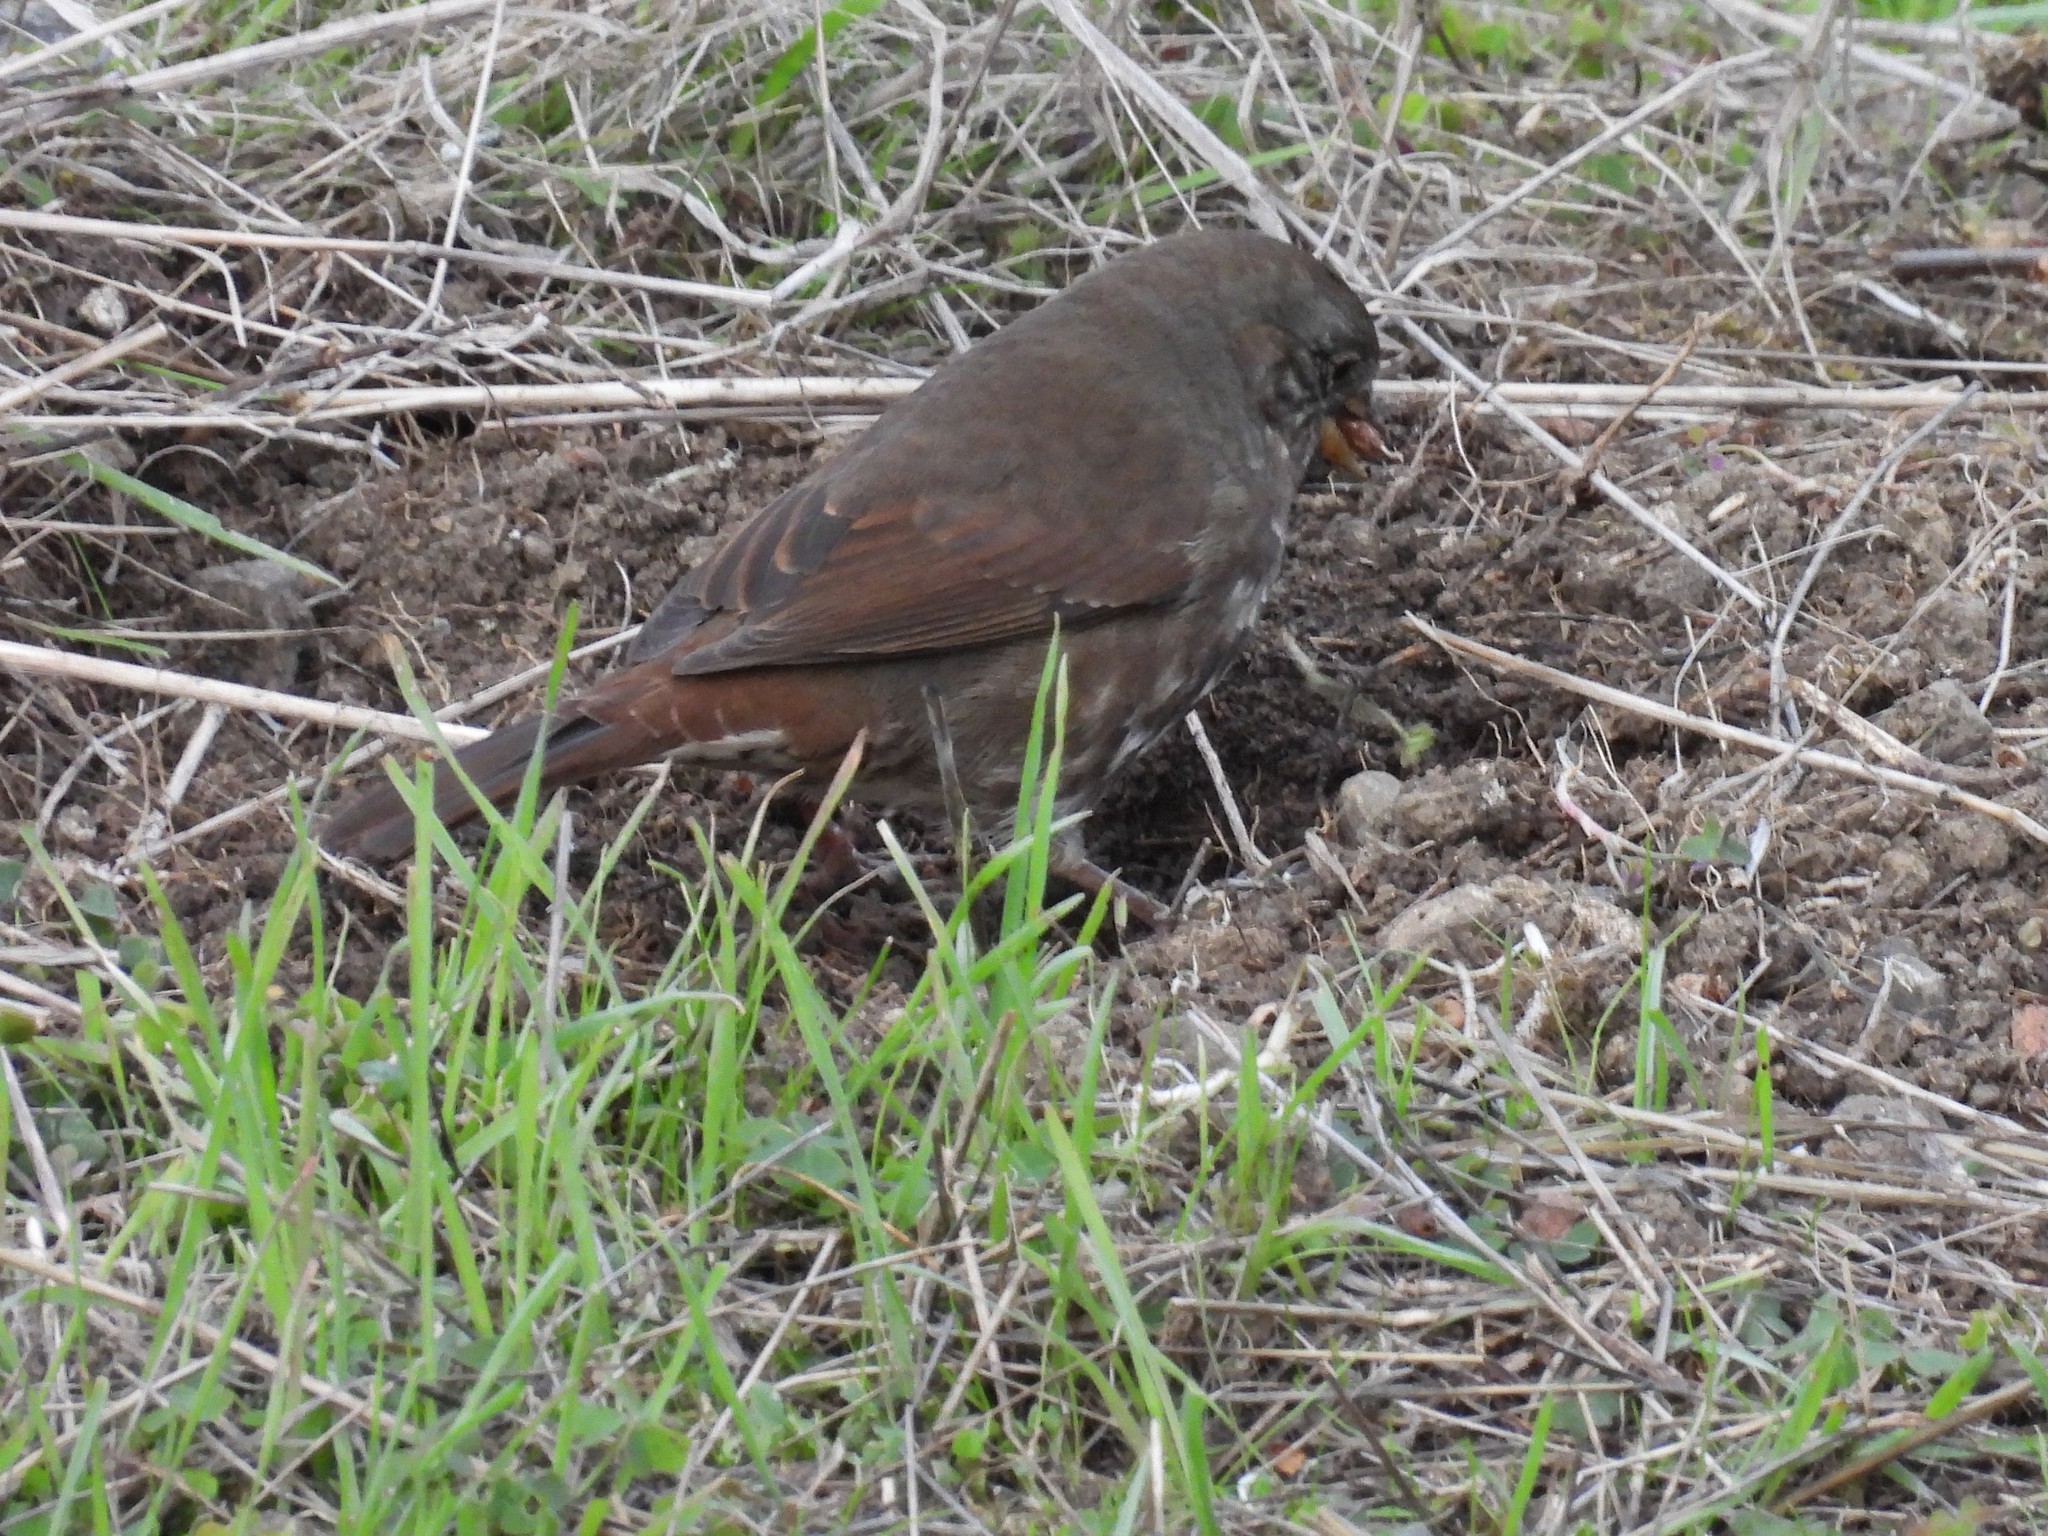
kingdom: Animalia
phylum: Chordata
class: Aves
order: Passeriformes
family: Passerellidae
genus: Passerella
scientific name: Passerella iliaca
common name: Fox sparrow
